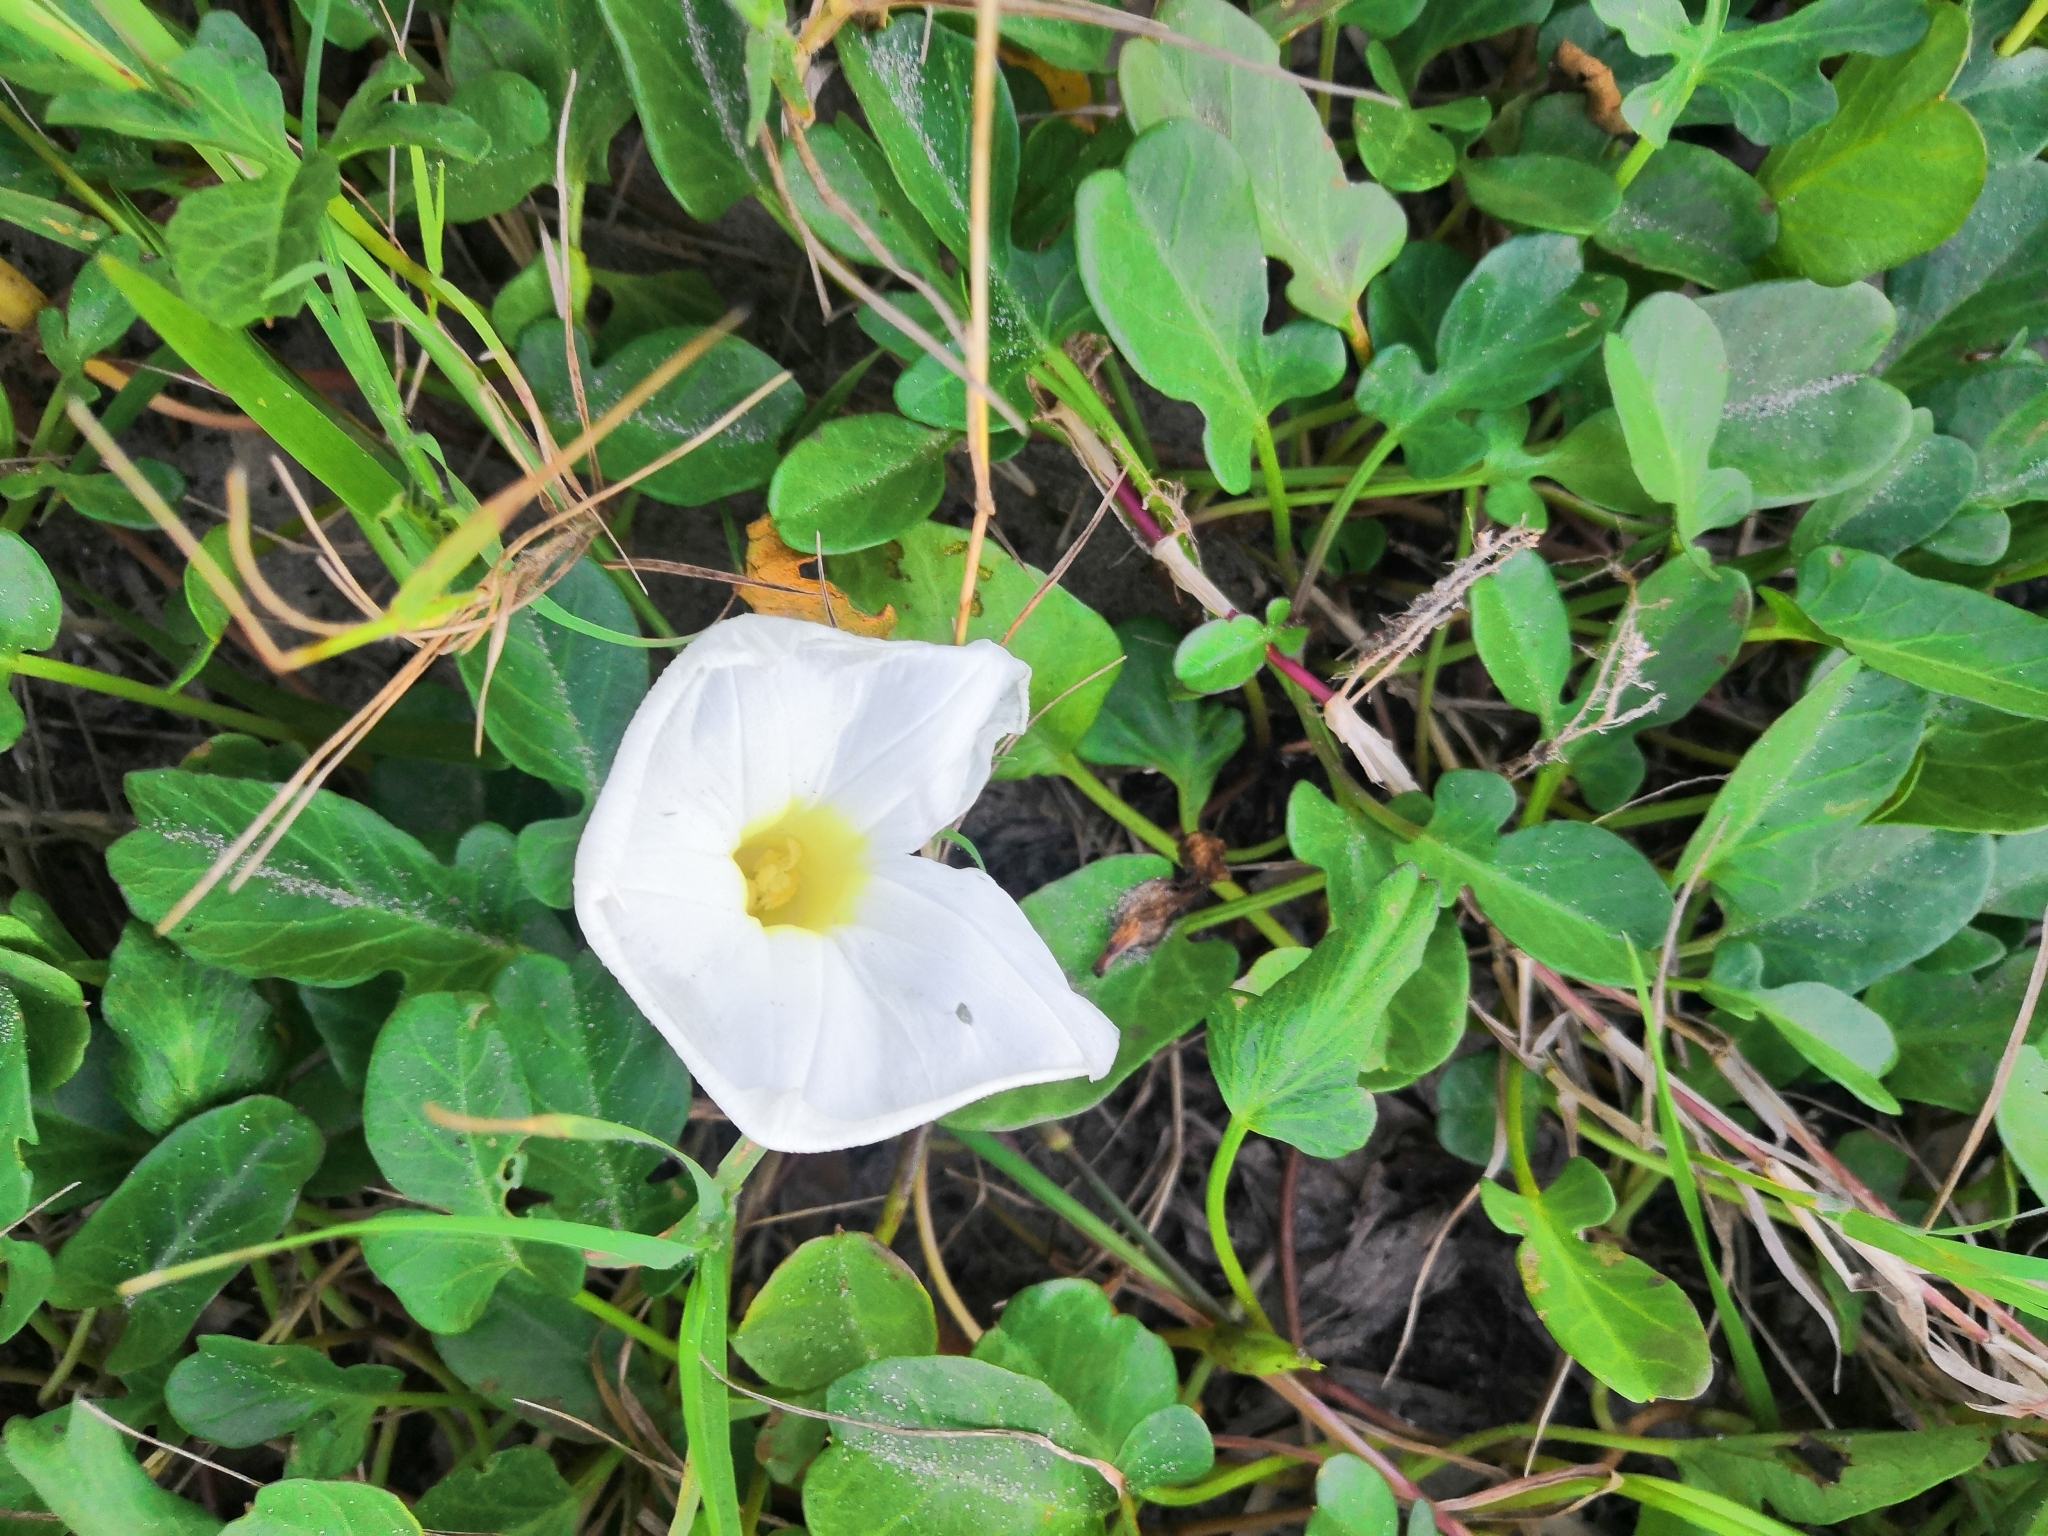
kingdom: Plantae
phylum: Tracheophyta
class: Magnoliopsida
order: Solanales
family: Convolvulaceae
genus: Ipomoea
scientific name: Ipomoea imperati
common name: Fiddle-leaf morning-glory
